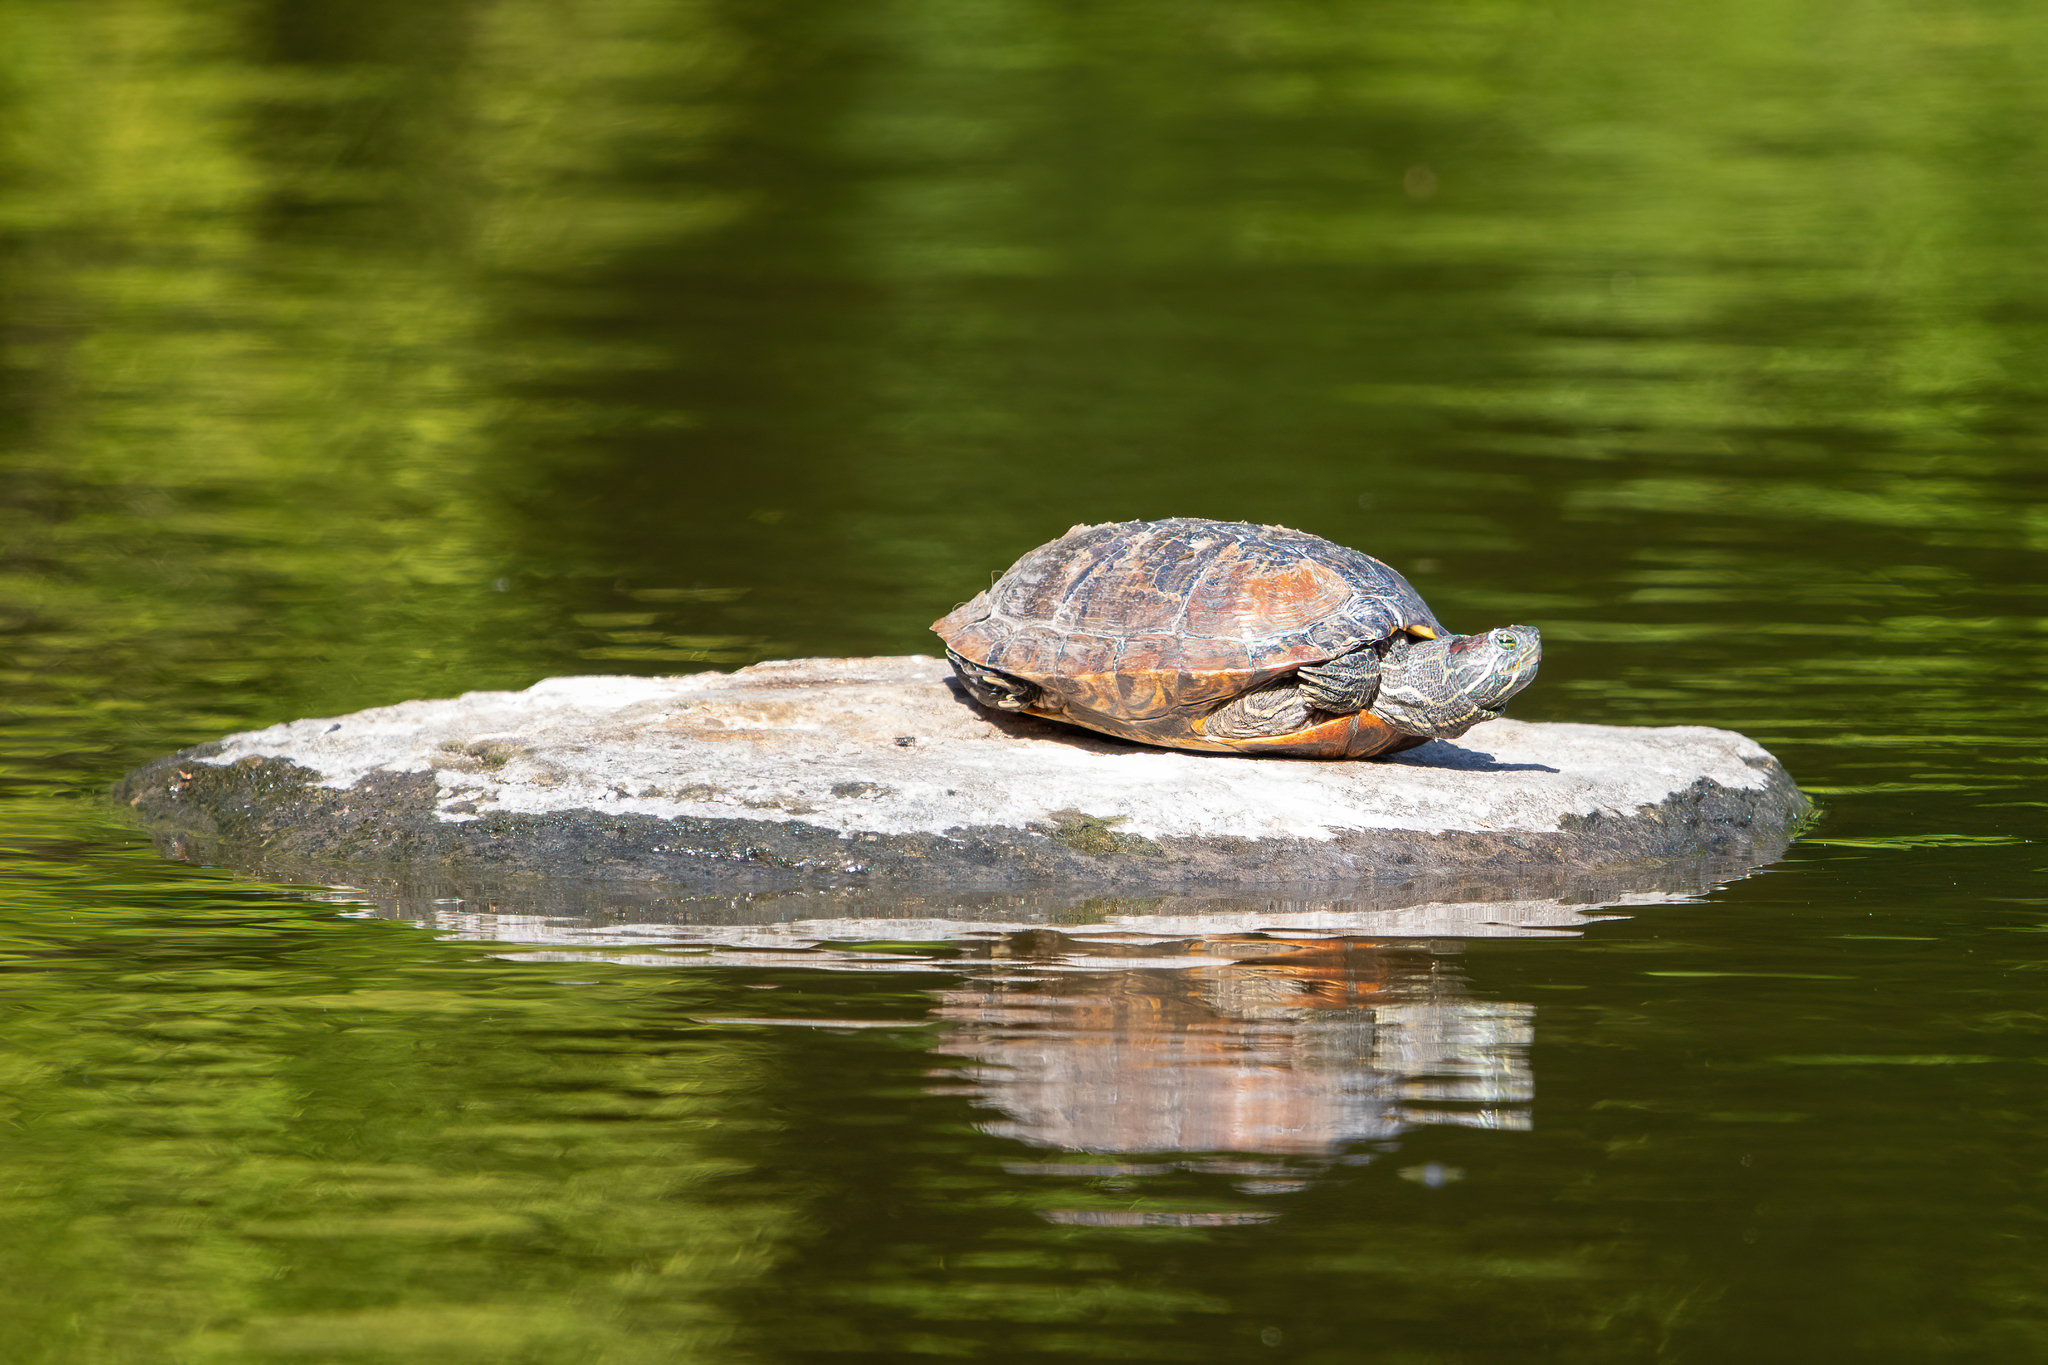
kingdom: Animalia
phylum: Chordata
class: Testudines
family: Emydidae
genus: Trachemys
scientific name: Trachemys scripta
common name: Slider
